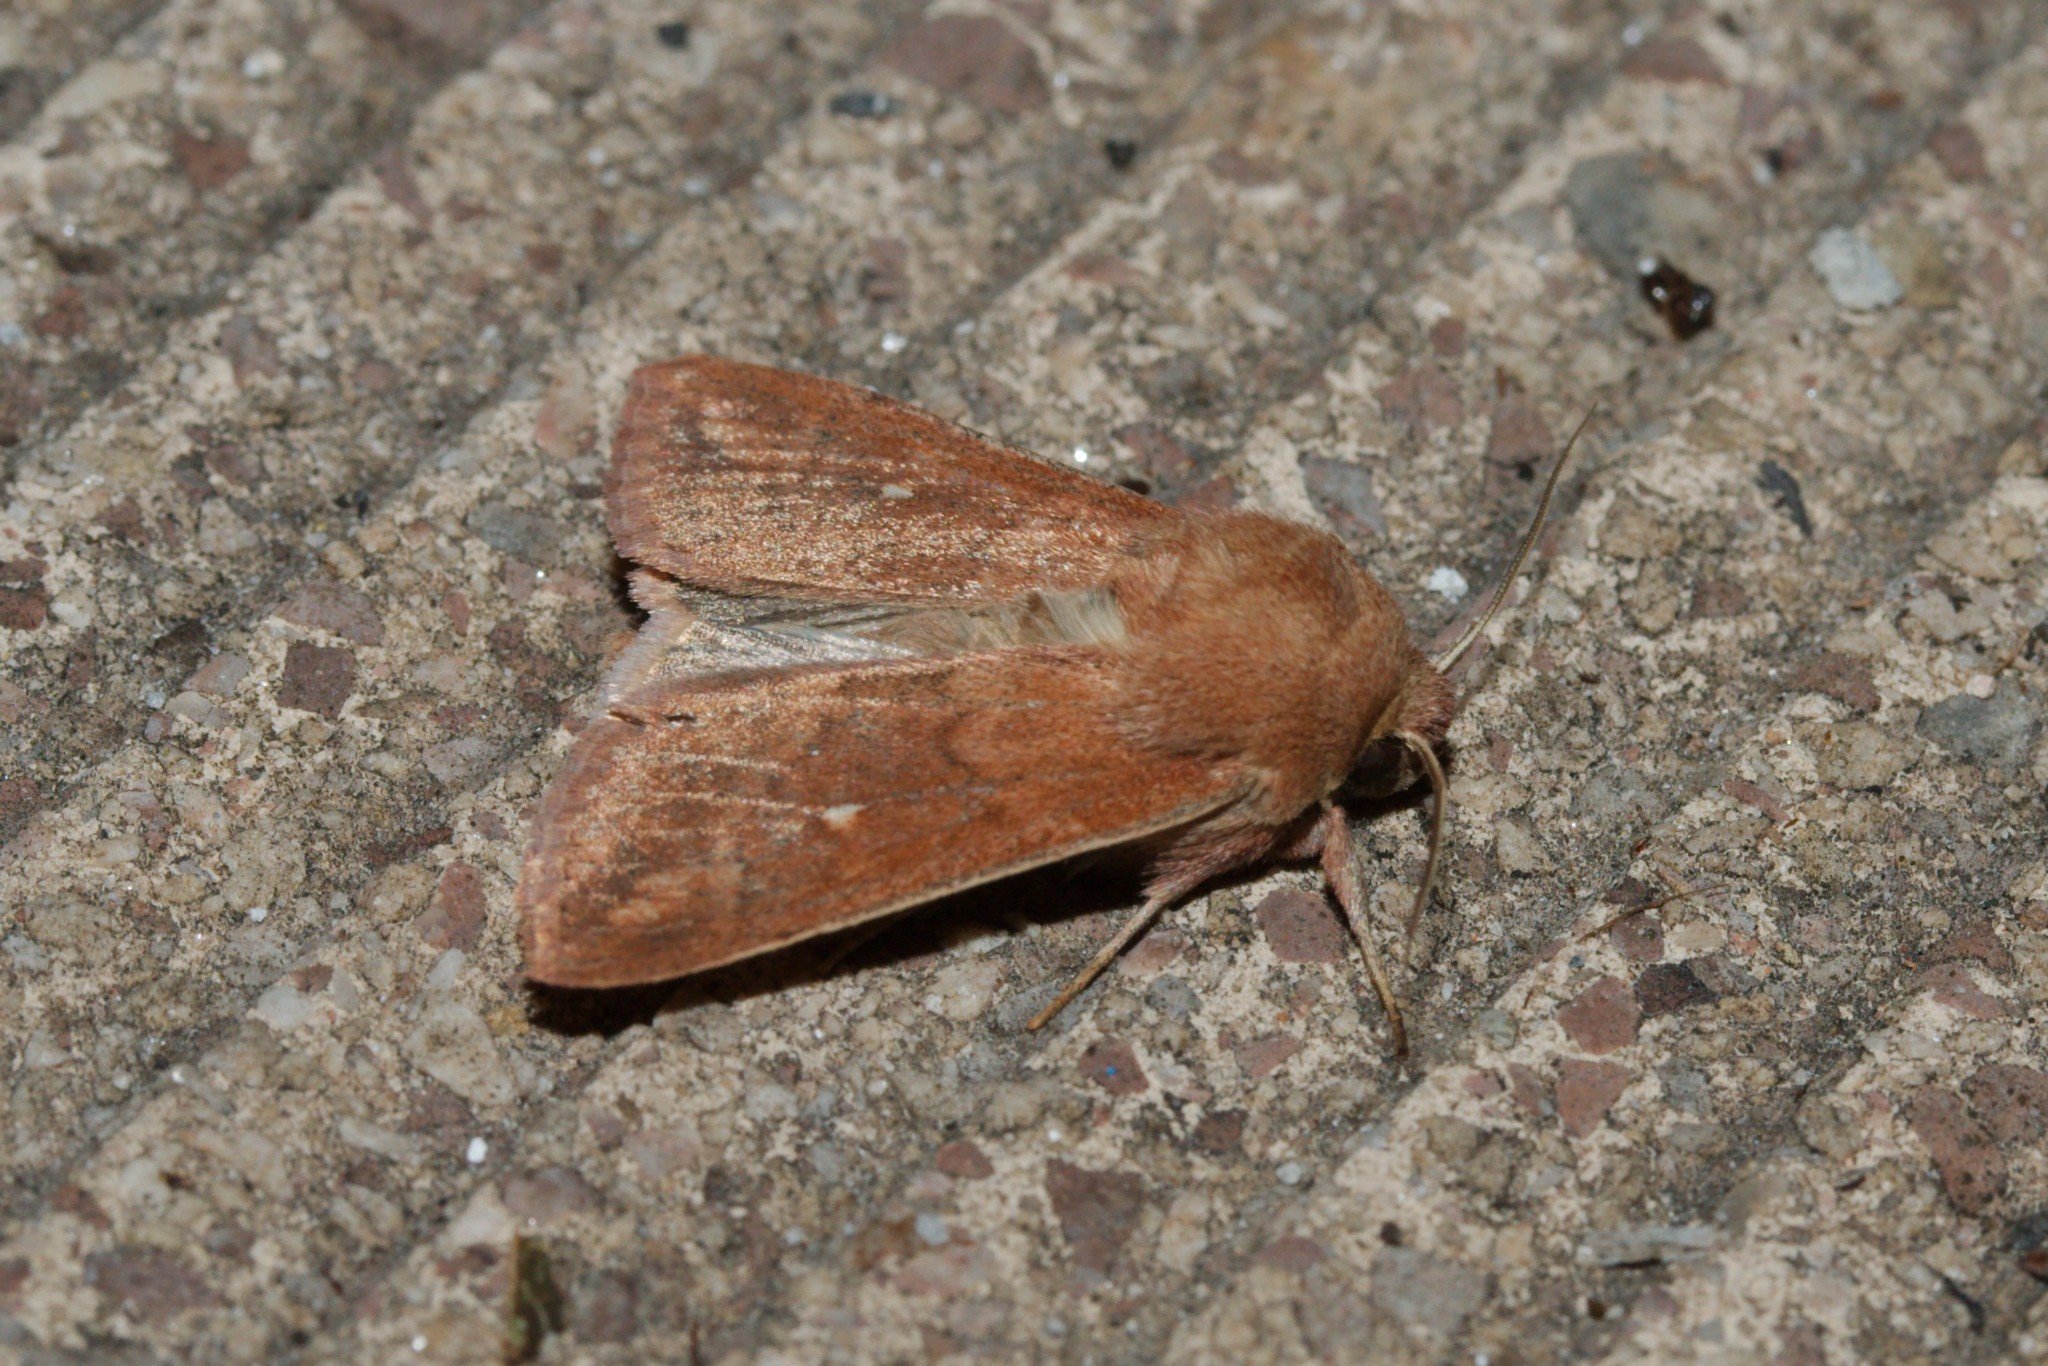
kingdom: Animalia
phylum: Arthropoda
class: Insecta
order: Lepidoptera
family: Noctuidae
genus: Mythimna
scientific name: Mythimna albipuncta
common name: White-point
